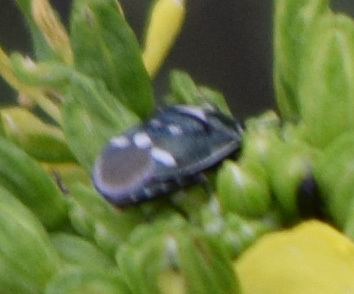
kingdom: Animalia
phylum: Arthropoda
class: Insecta
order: Hemiptera
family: Pentatomidae
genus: Eurydema
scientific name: Eurydema oleracea
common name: Cabbage bug
